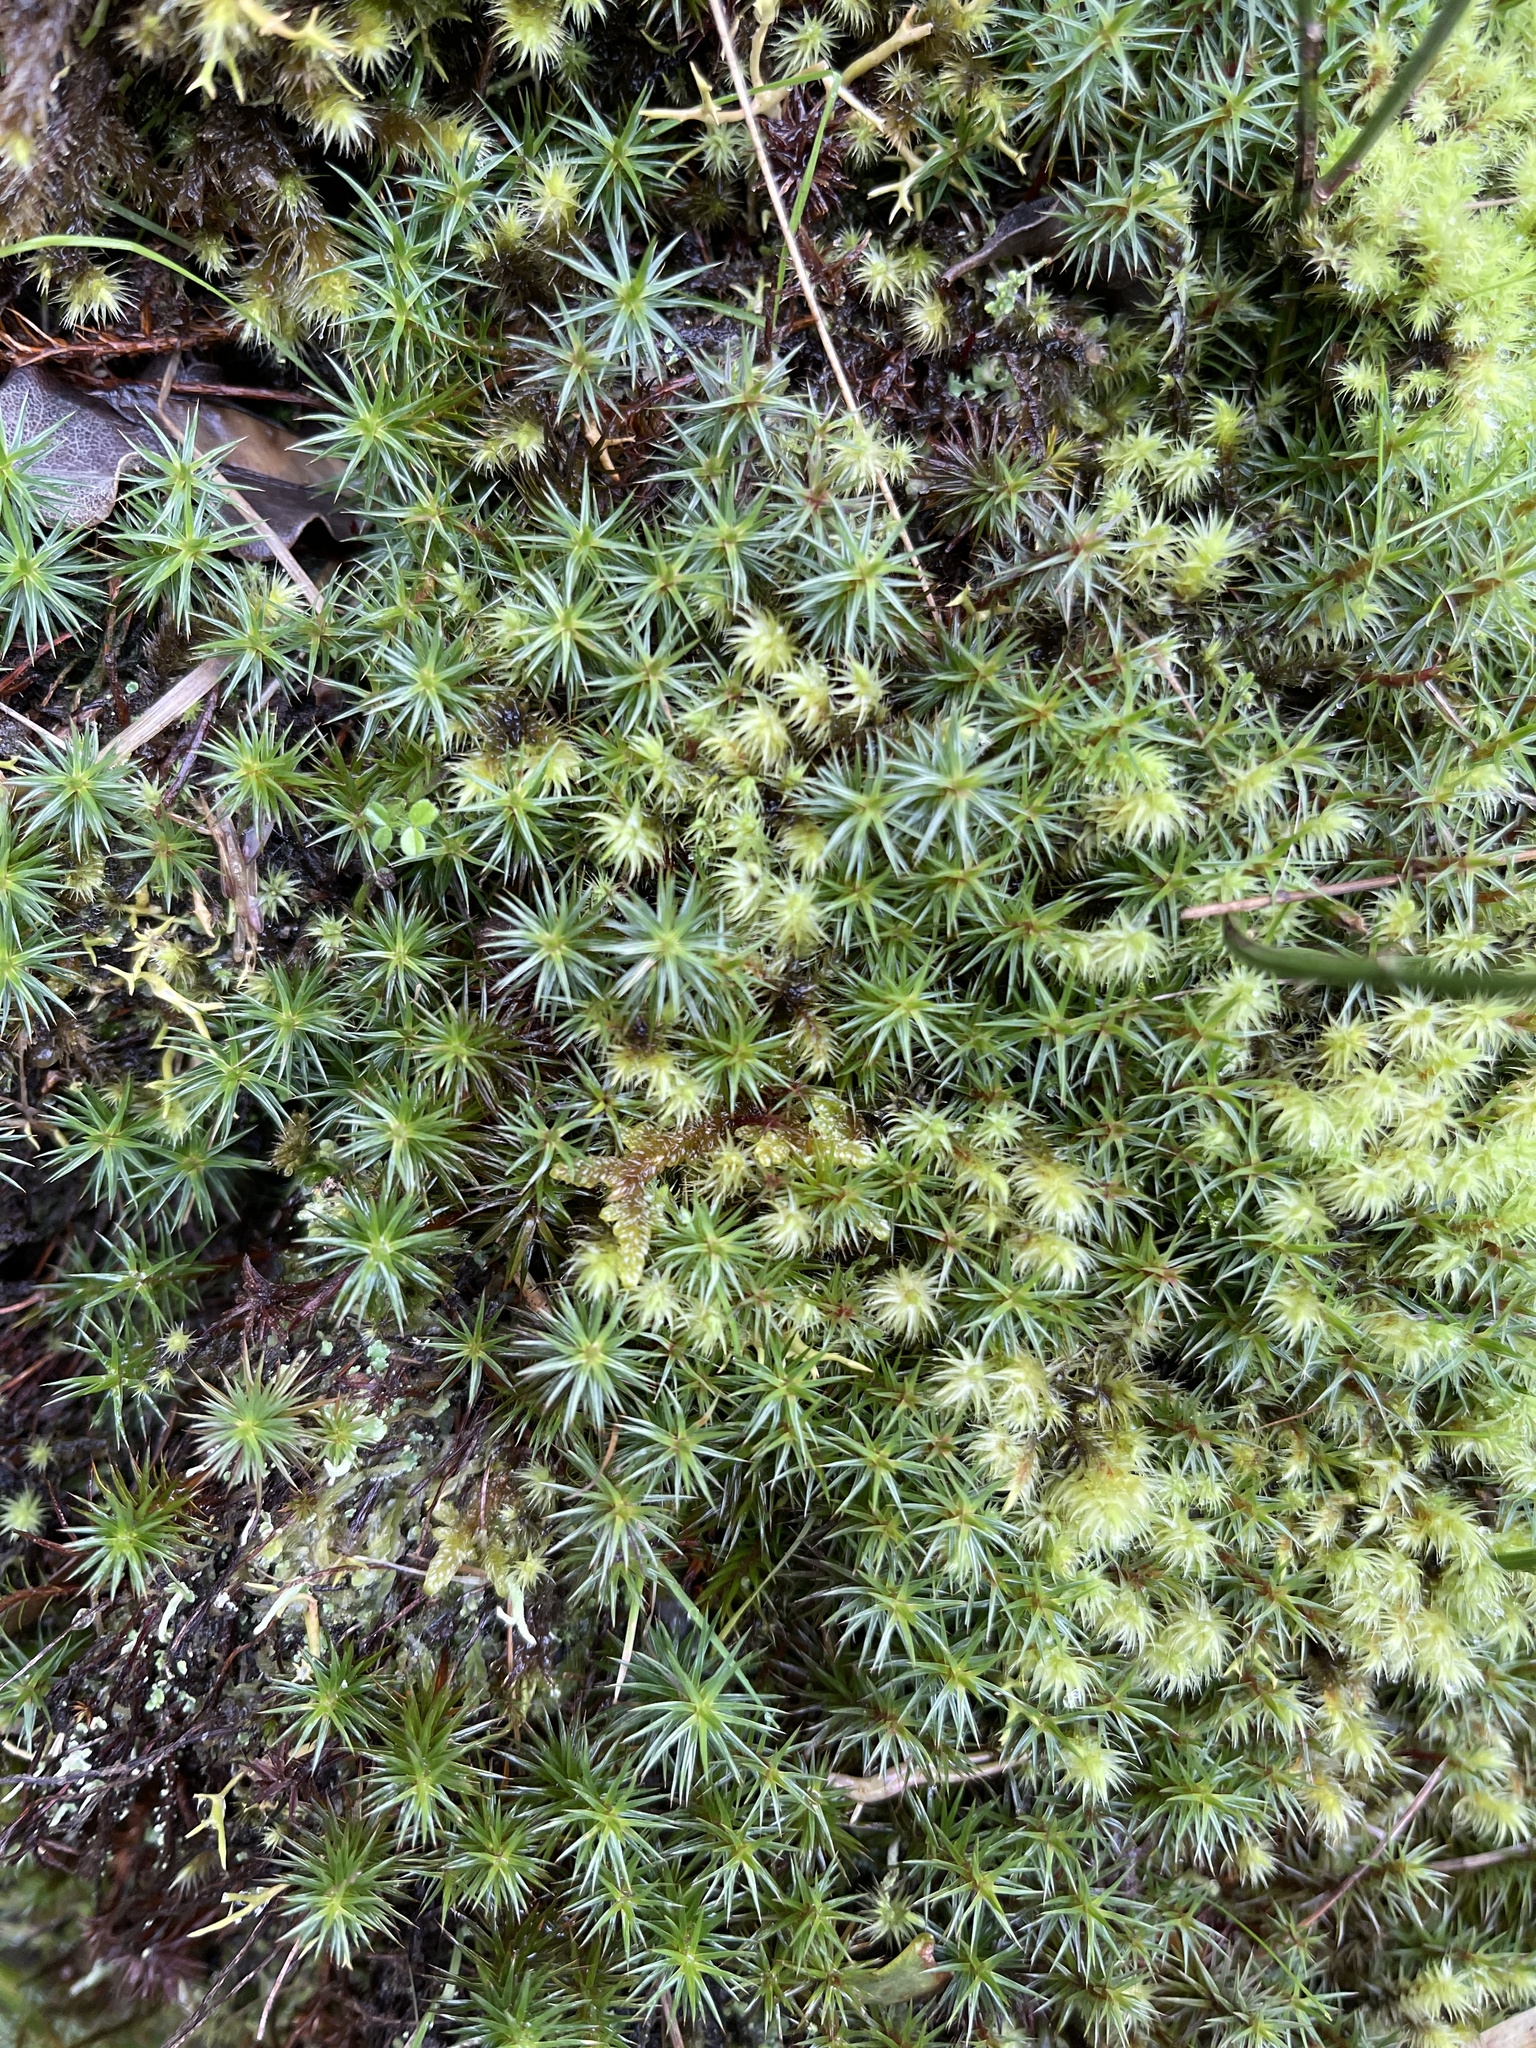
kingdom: Plantae
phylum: Bryophyta
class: Polytrichopsida
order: Polytrichales
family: Polytrichaceae
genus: Polytrichum
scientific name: Polytrichum juniperinum
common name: Juniper haircap moss
